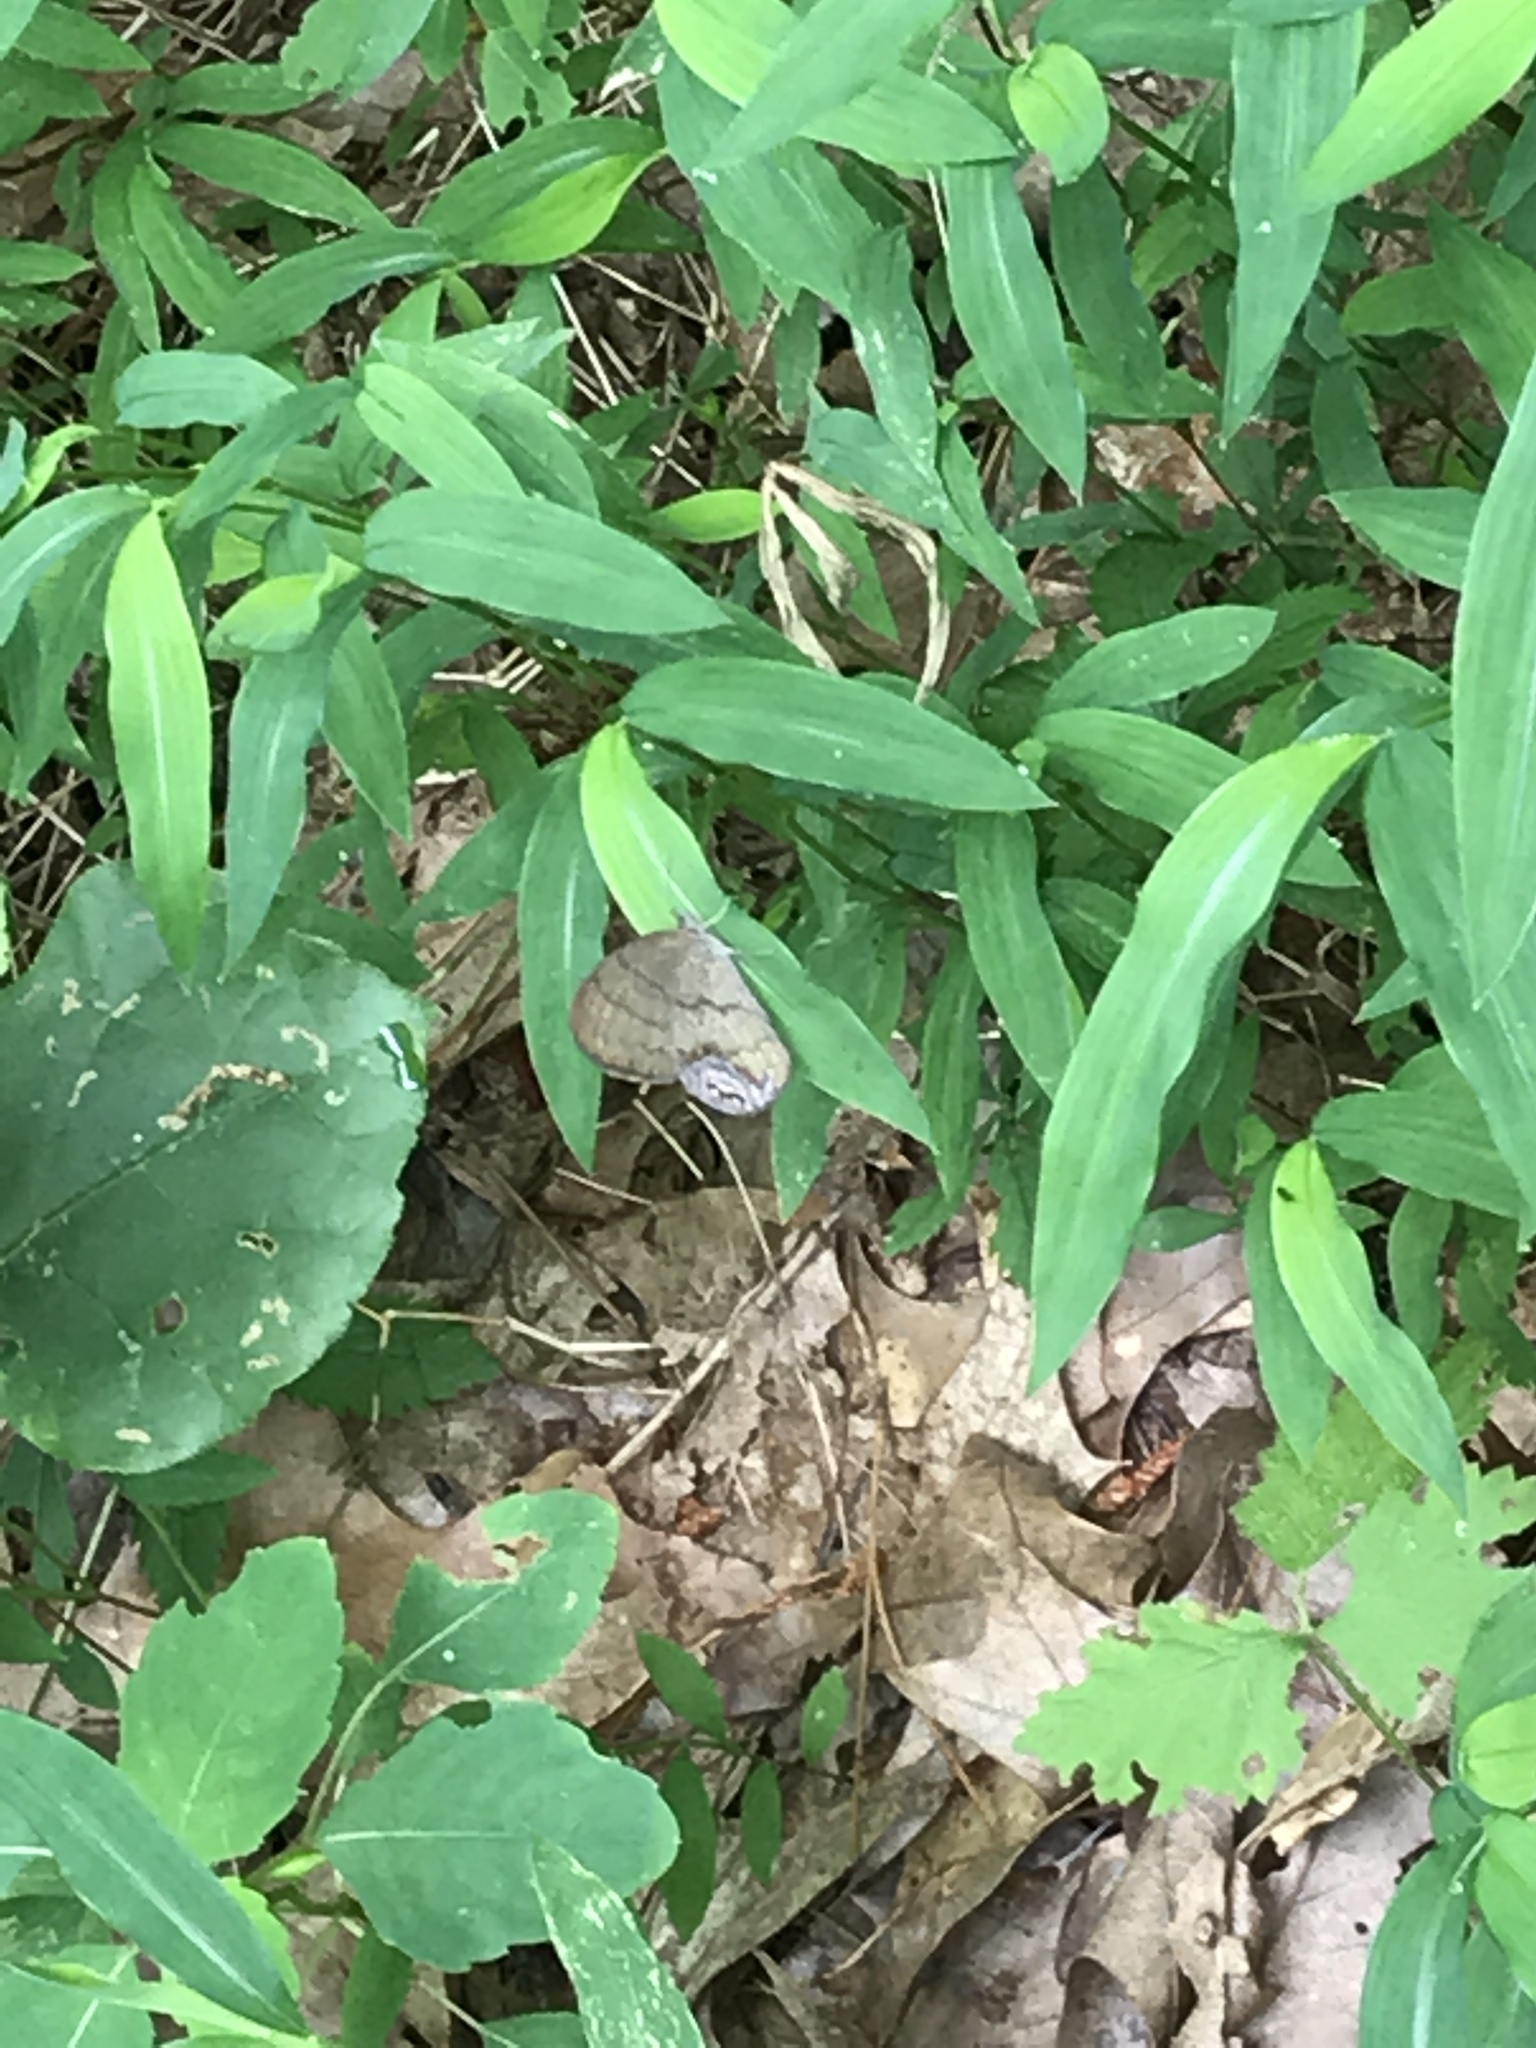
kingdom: Animalia
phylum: Arthropoda
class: Insecta
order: Lepidoptera
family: Nymphalidae
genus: Euptychia
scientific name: Euptychia cornelius
